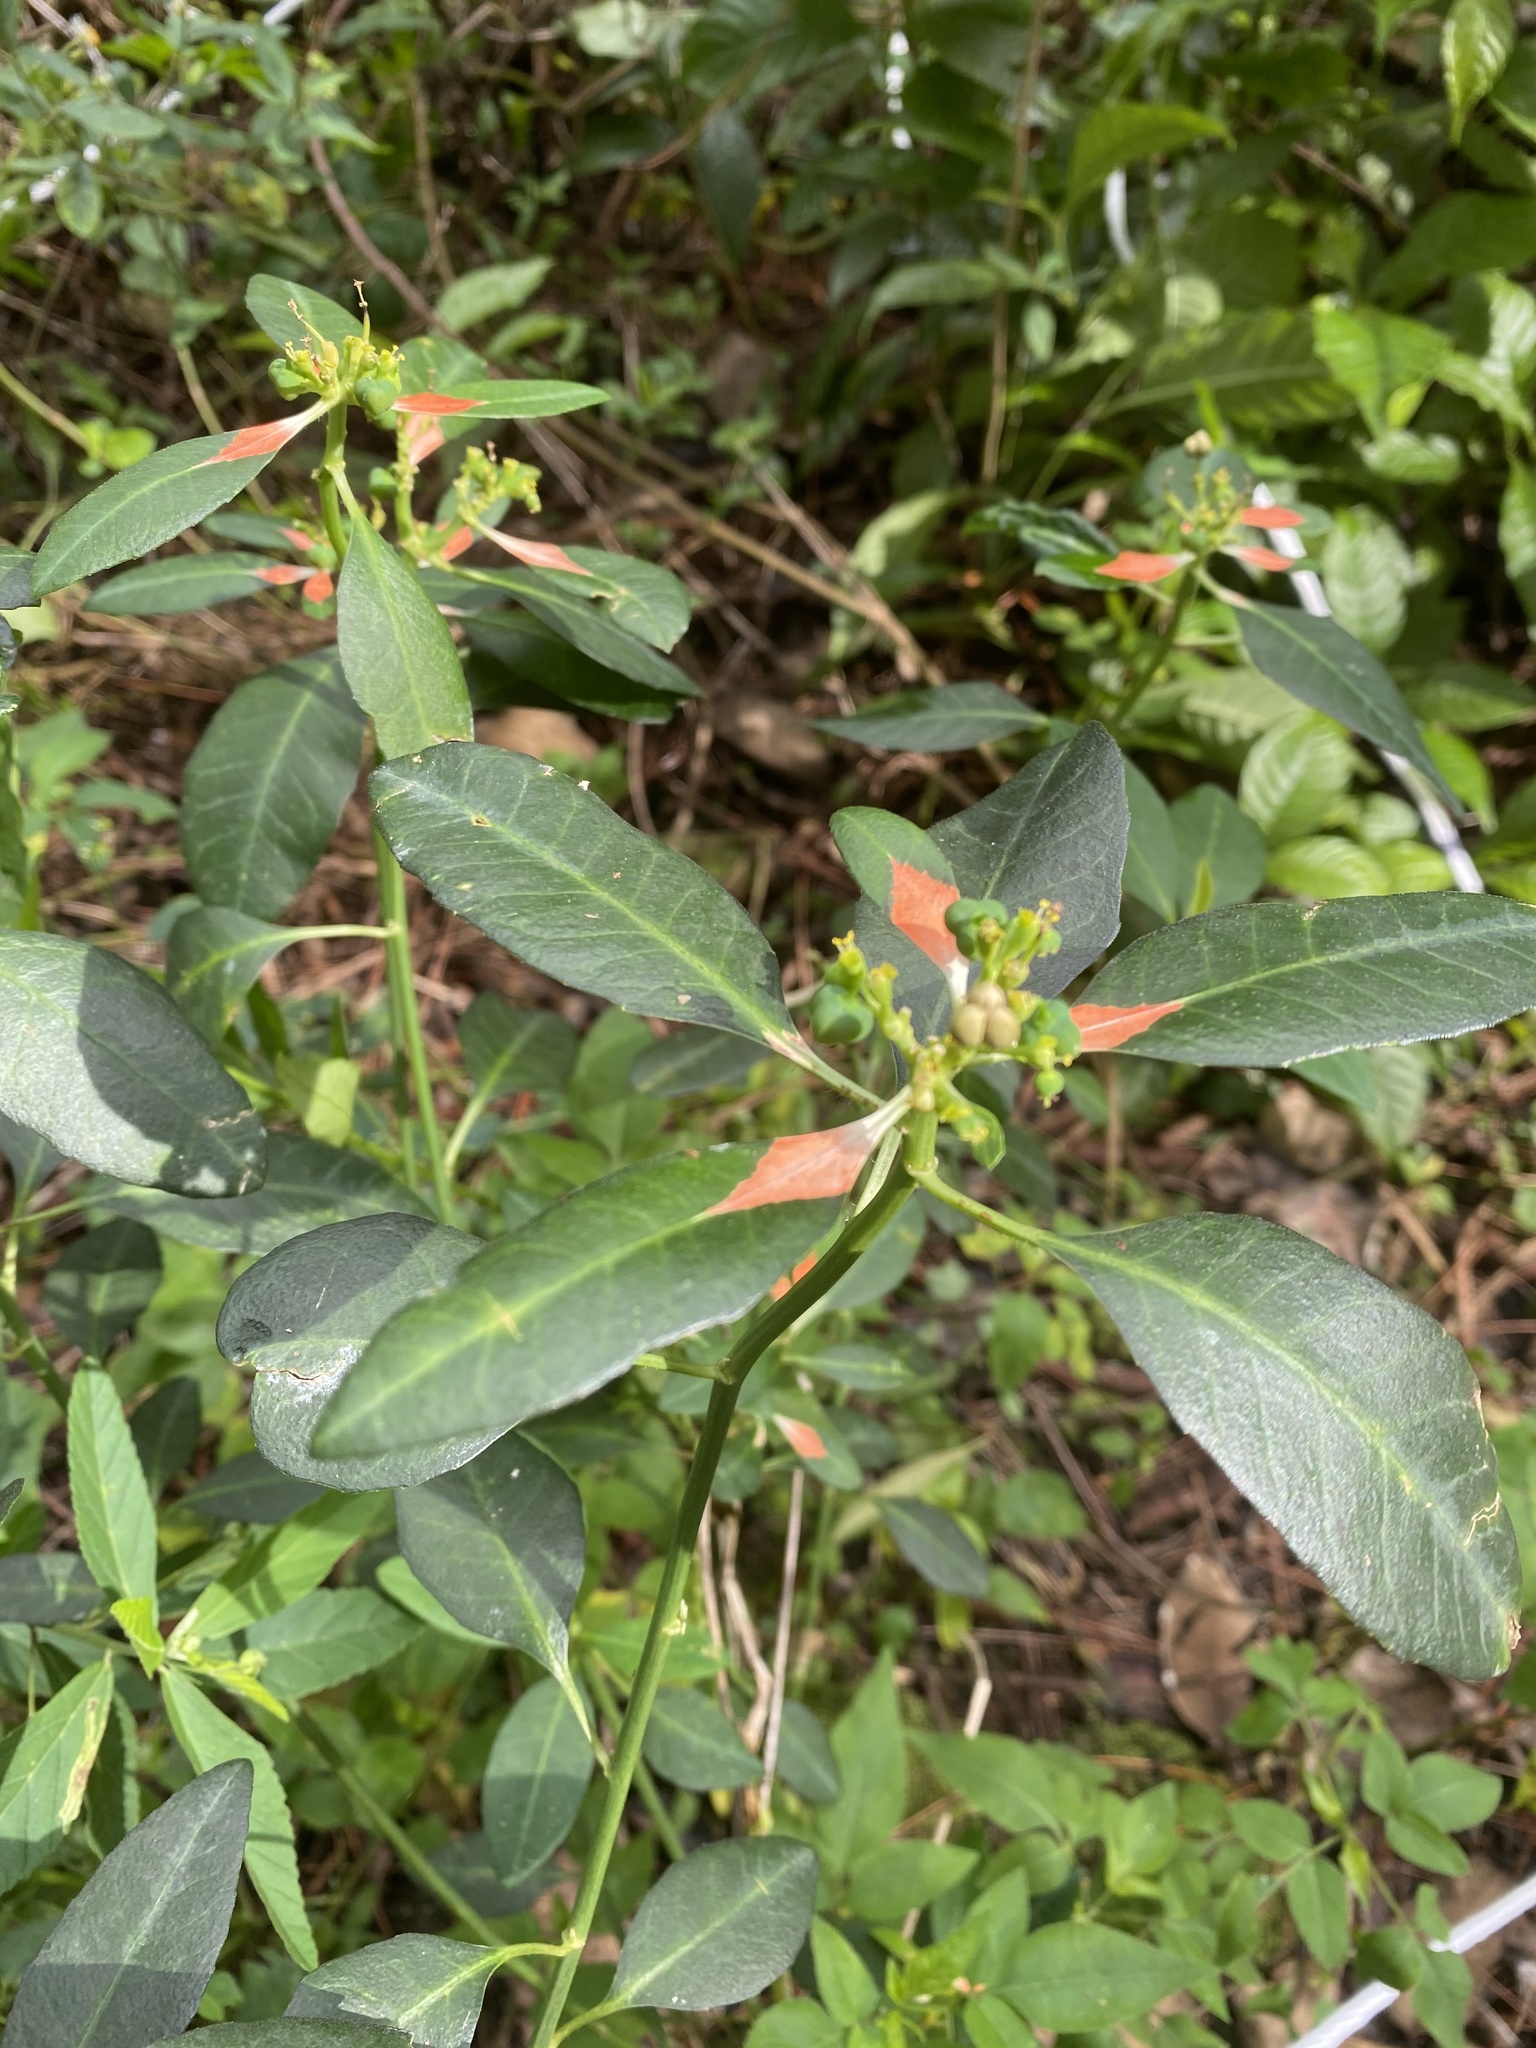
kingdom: Plantae
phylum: Tracheophyta
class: Magnoliopsida
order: Malpighiales
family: Euphorbiaceae
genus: Euphorbia
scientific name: Euphorbia heterophylla
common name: Mexican fireplant
